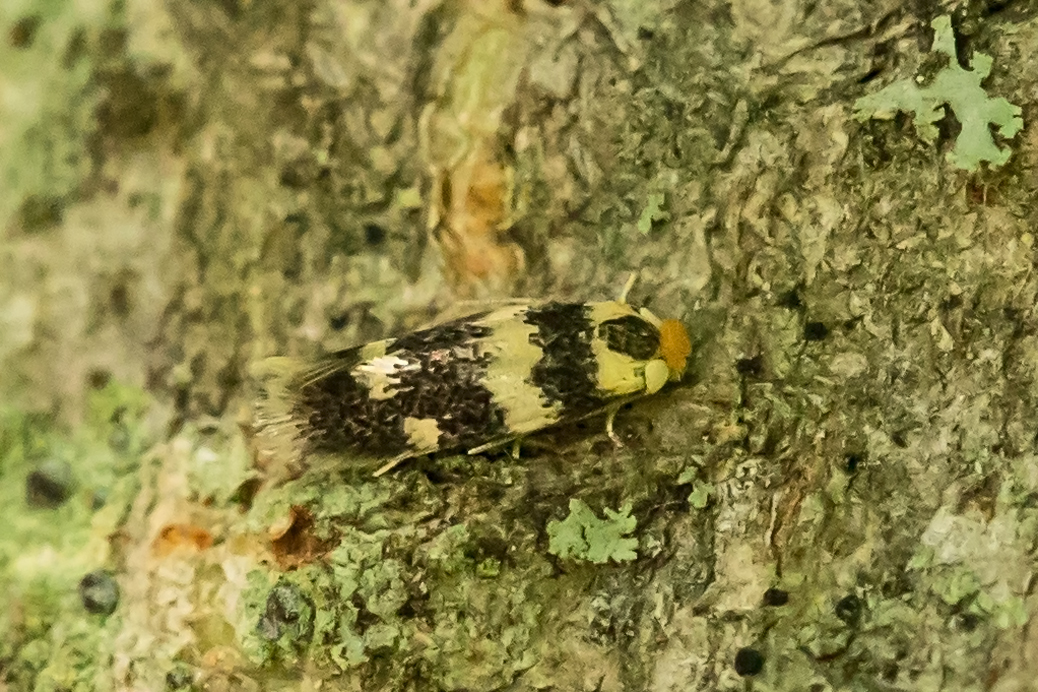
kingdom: Animalia
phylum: Arthropoda
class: Insecta
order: Lepidoptera
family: Nepticulidae
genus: Etainia
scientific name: Etainia sericopeza
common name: Leafminer
